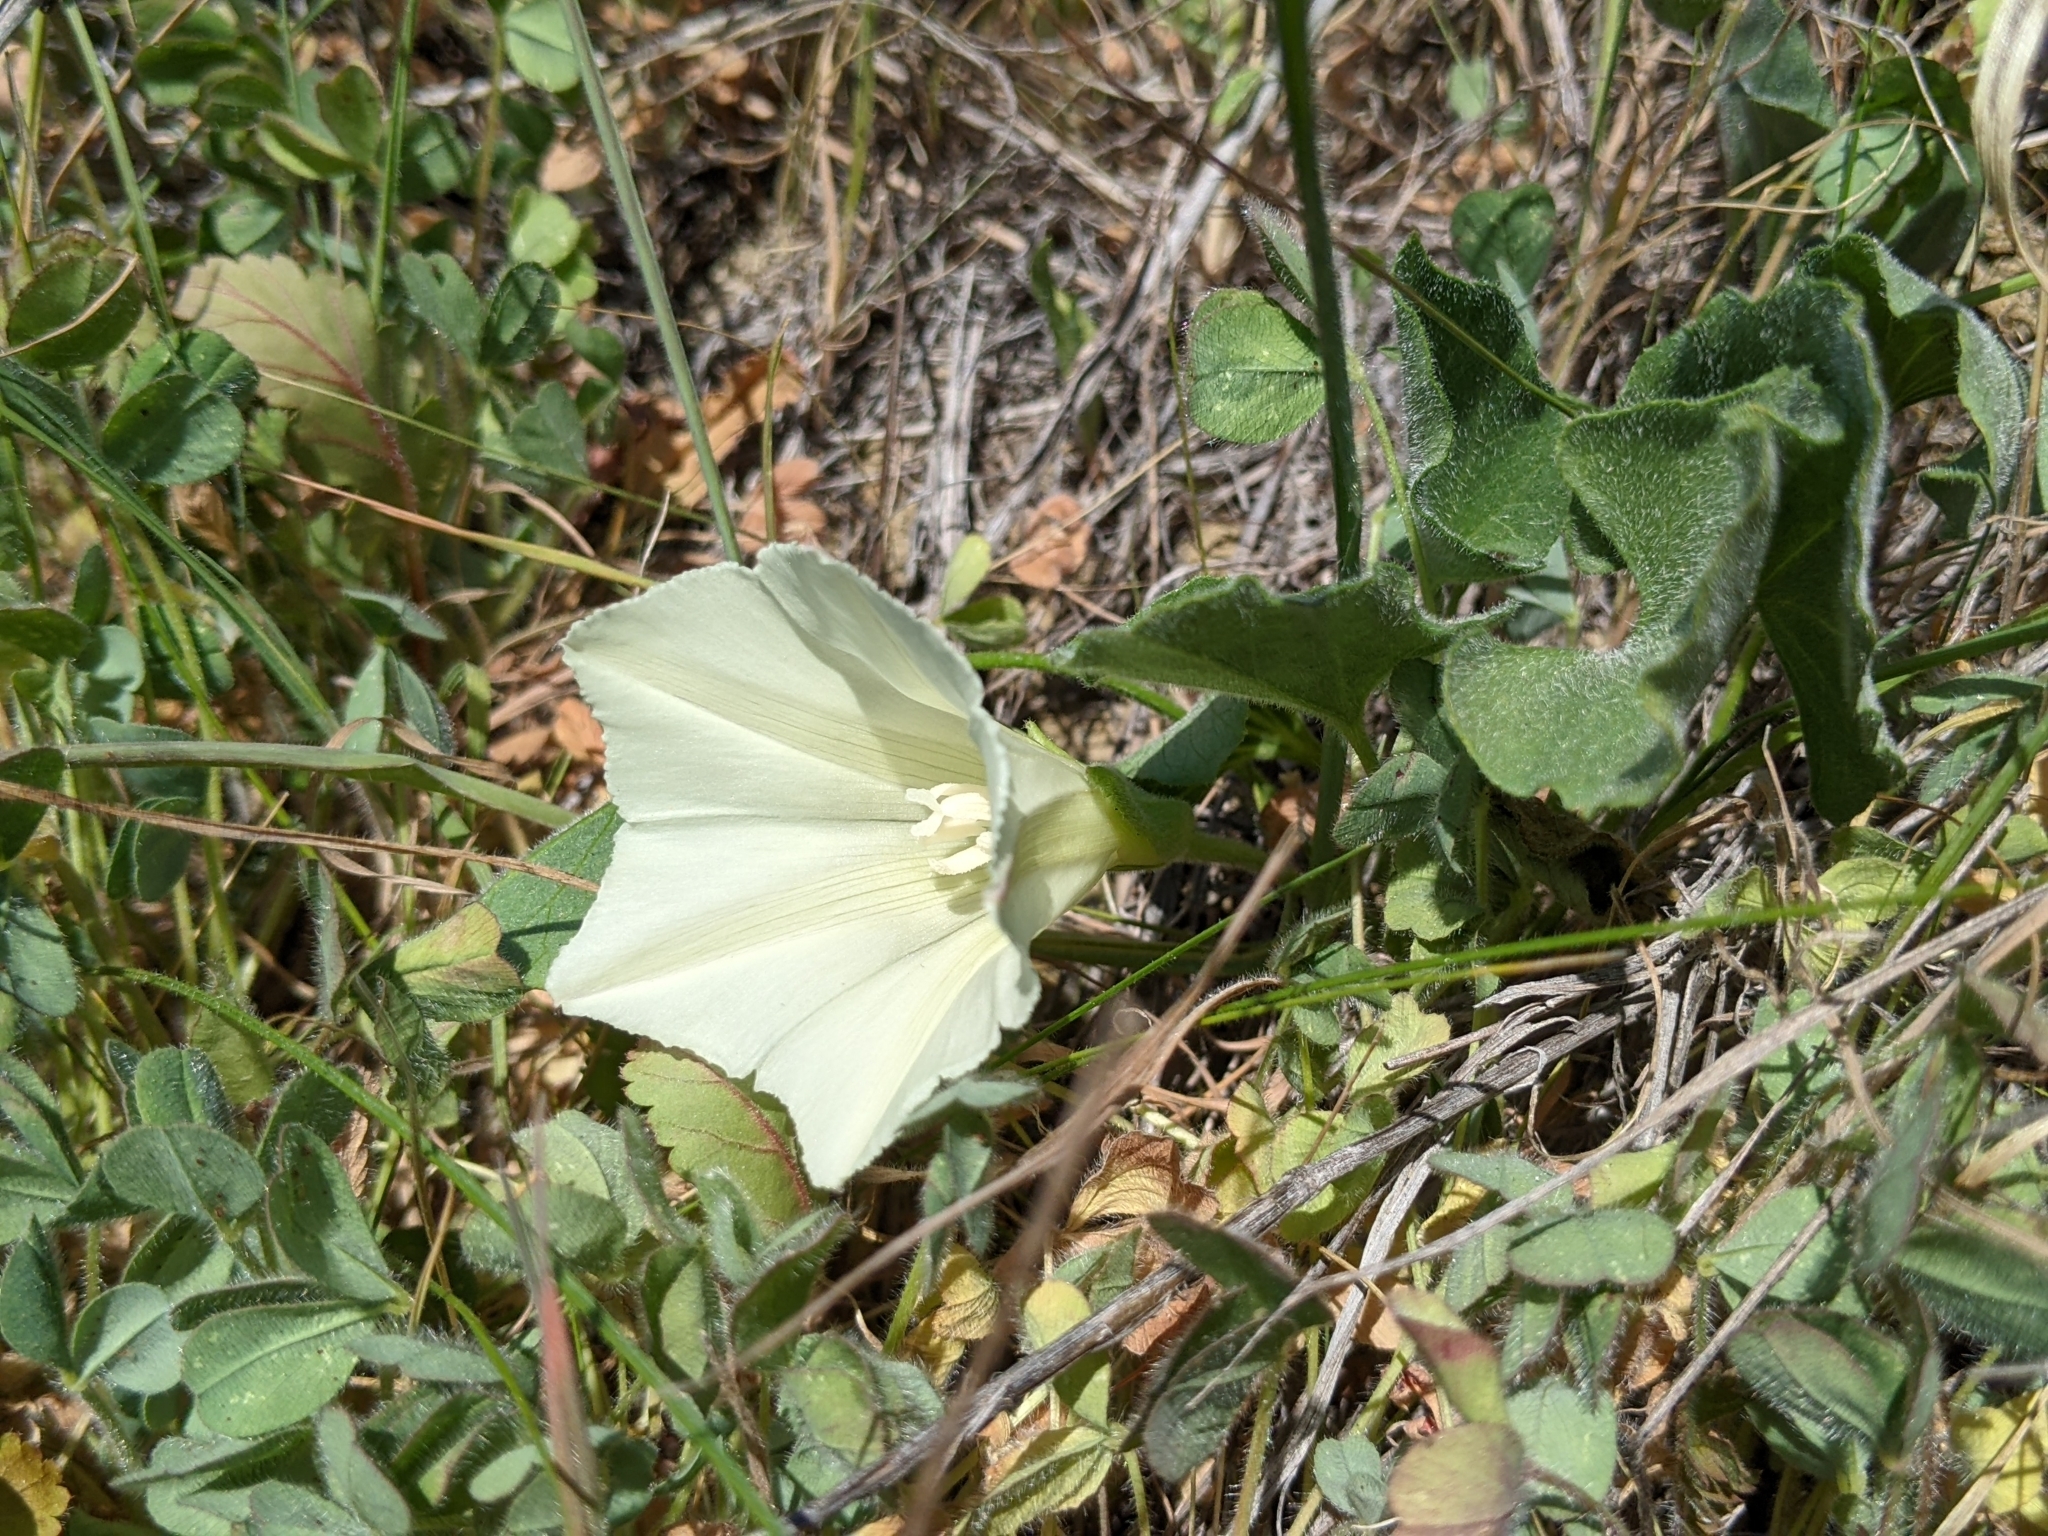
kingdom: Plantae
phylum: Tracheophyta
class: Magnoliopsida
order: Solanales
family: Convolvulaceae
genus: Calystegia
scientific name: Calystegia subacaulis
